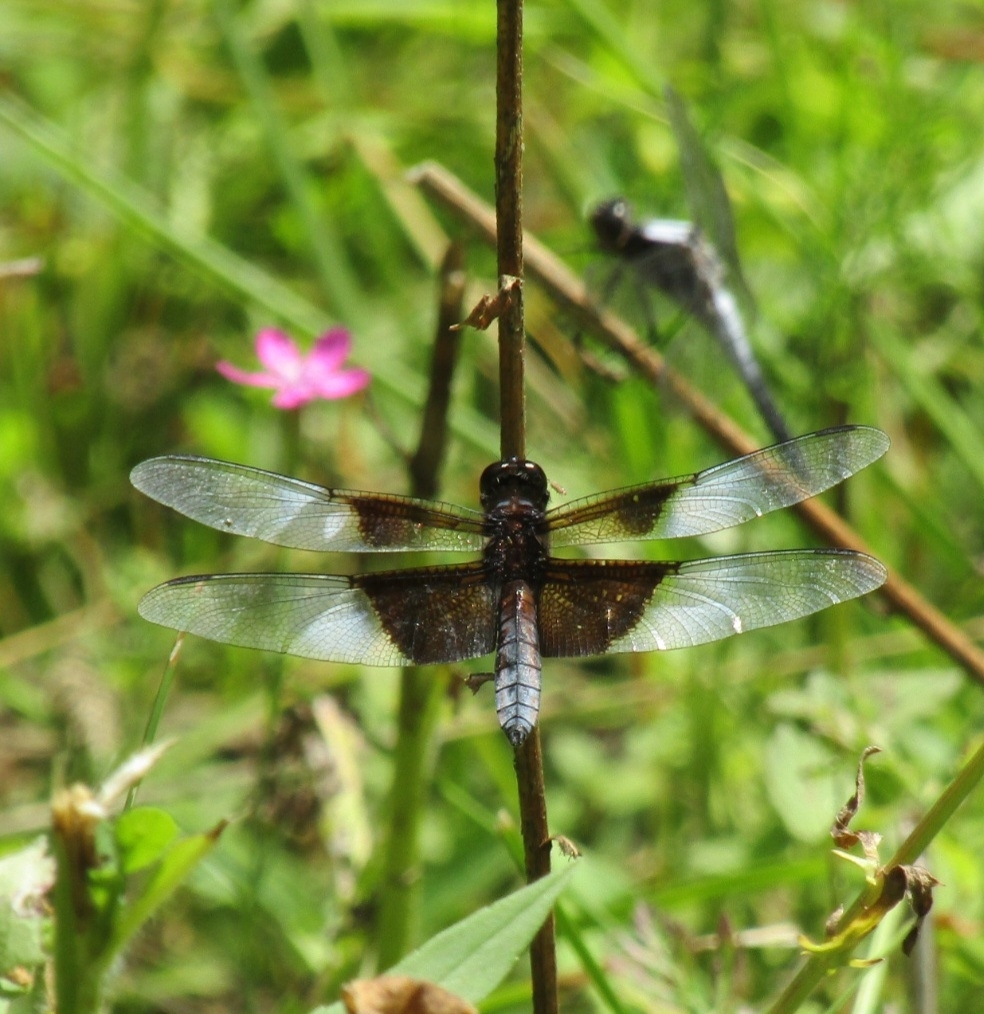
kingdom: Animalia
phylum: Arthropoda
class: Insecta
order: Odonata
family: Libellulidae
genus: Libellula
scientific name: Libellula luctuosa
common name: Widow skimmer
